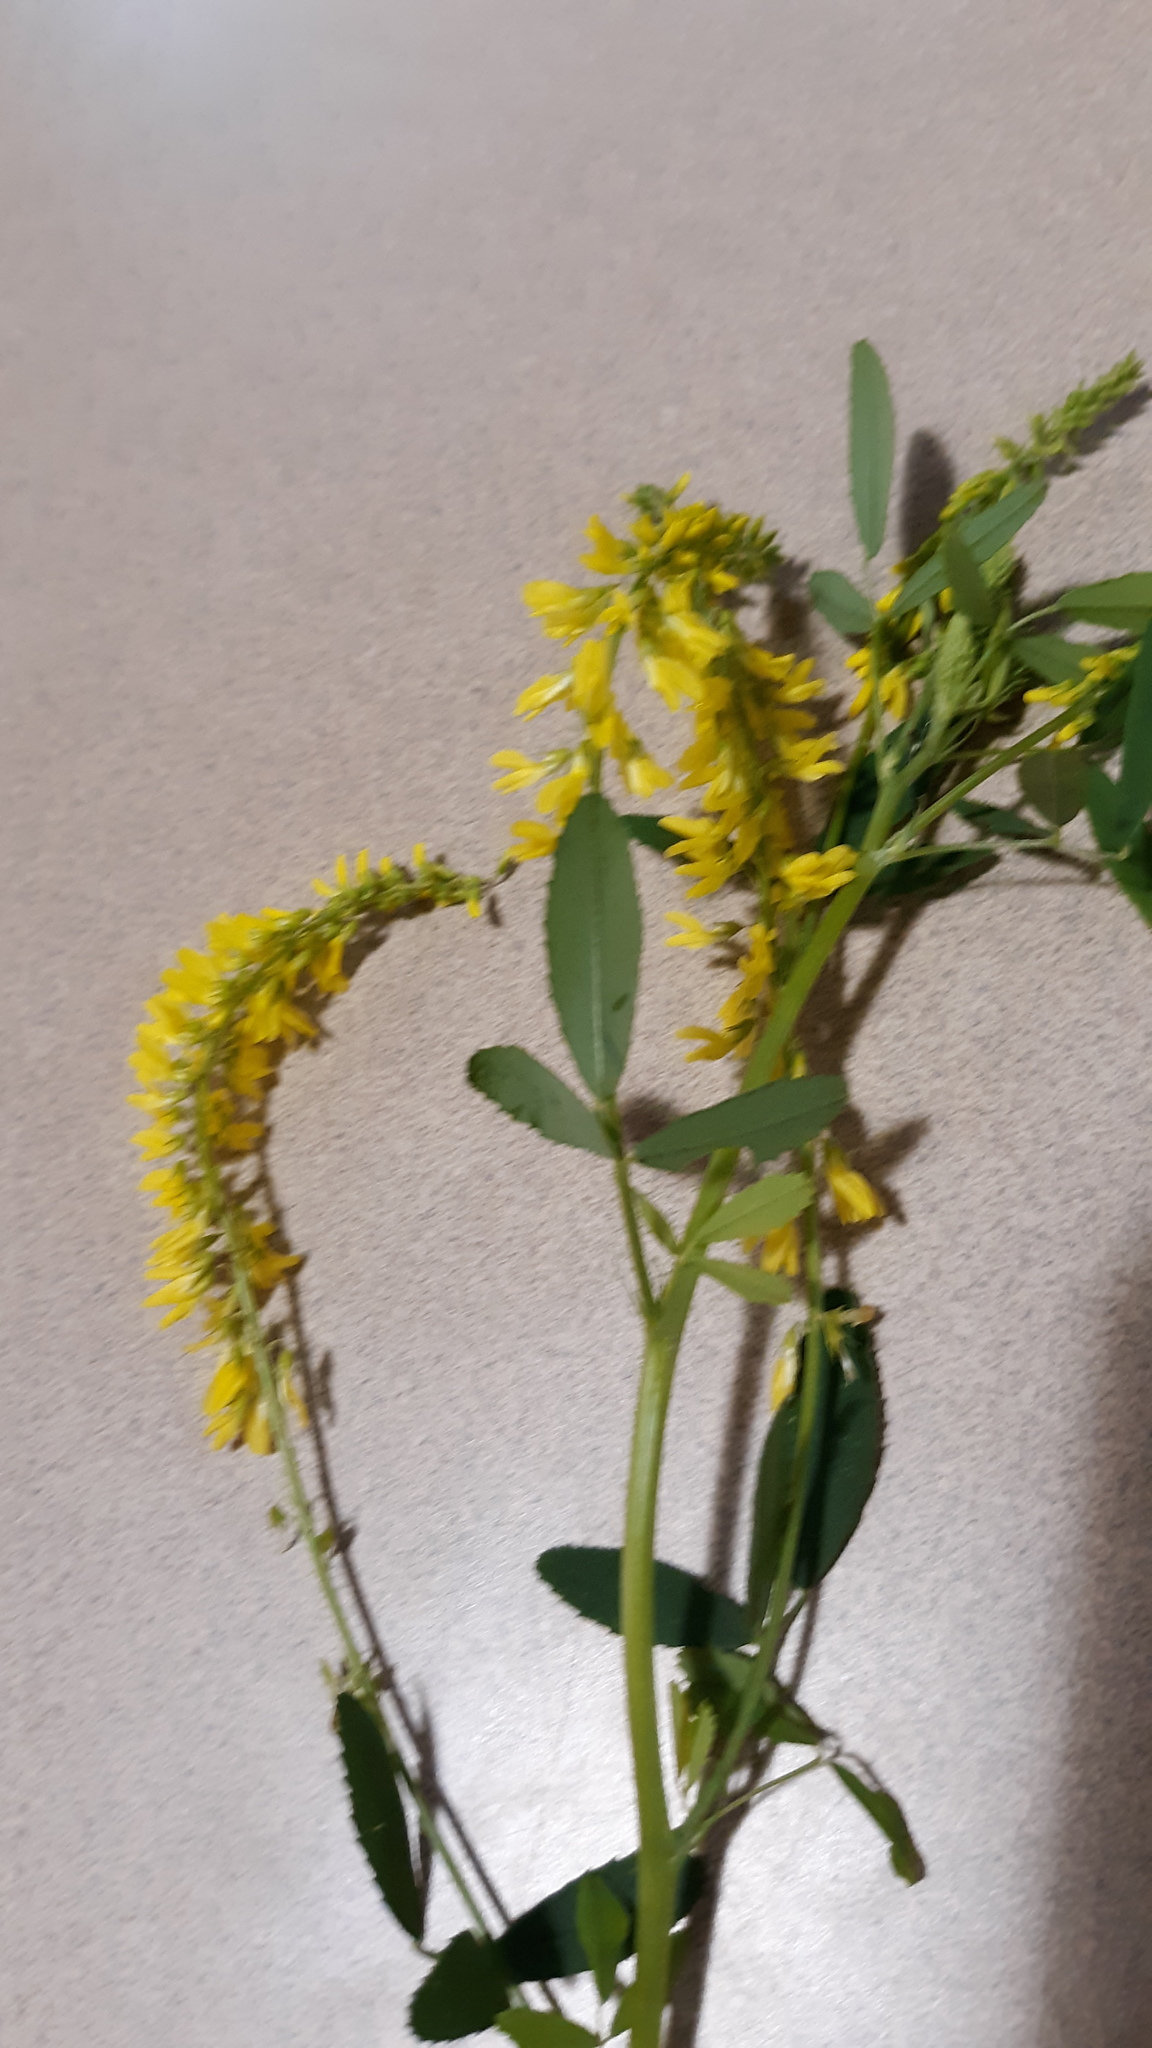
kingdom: Plantae
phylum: Tracheophyta
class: Magnoliopsida
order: Fabales
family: Fabaceae
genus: Melilotus
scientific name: Melilotus officinalis
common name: Sweetclover
